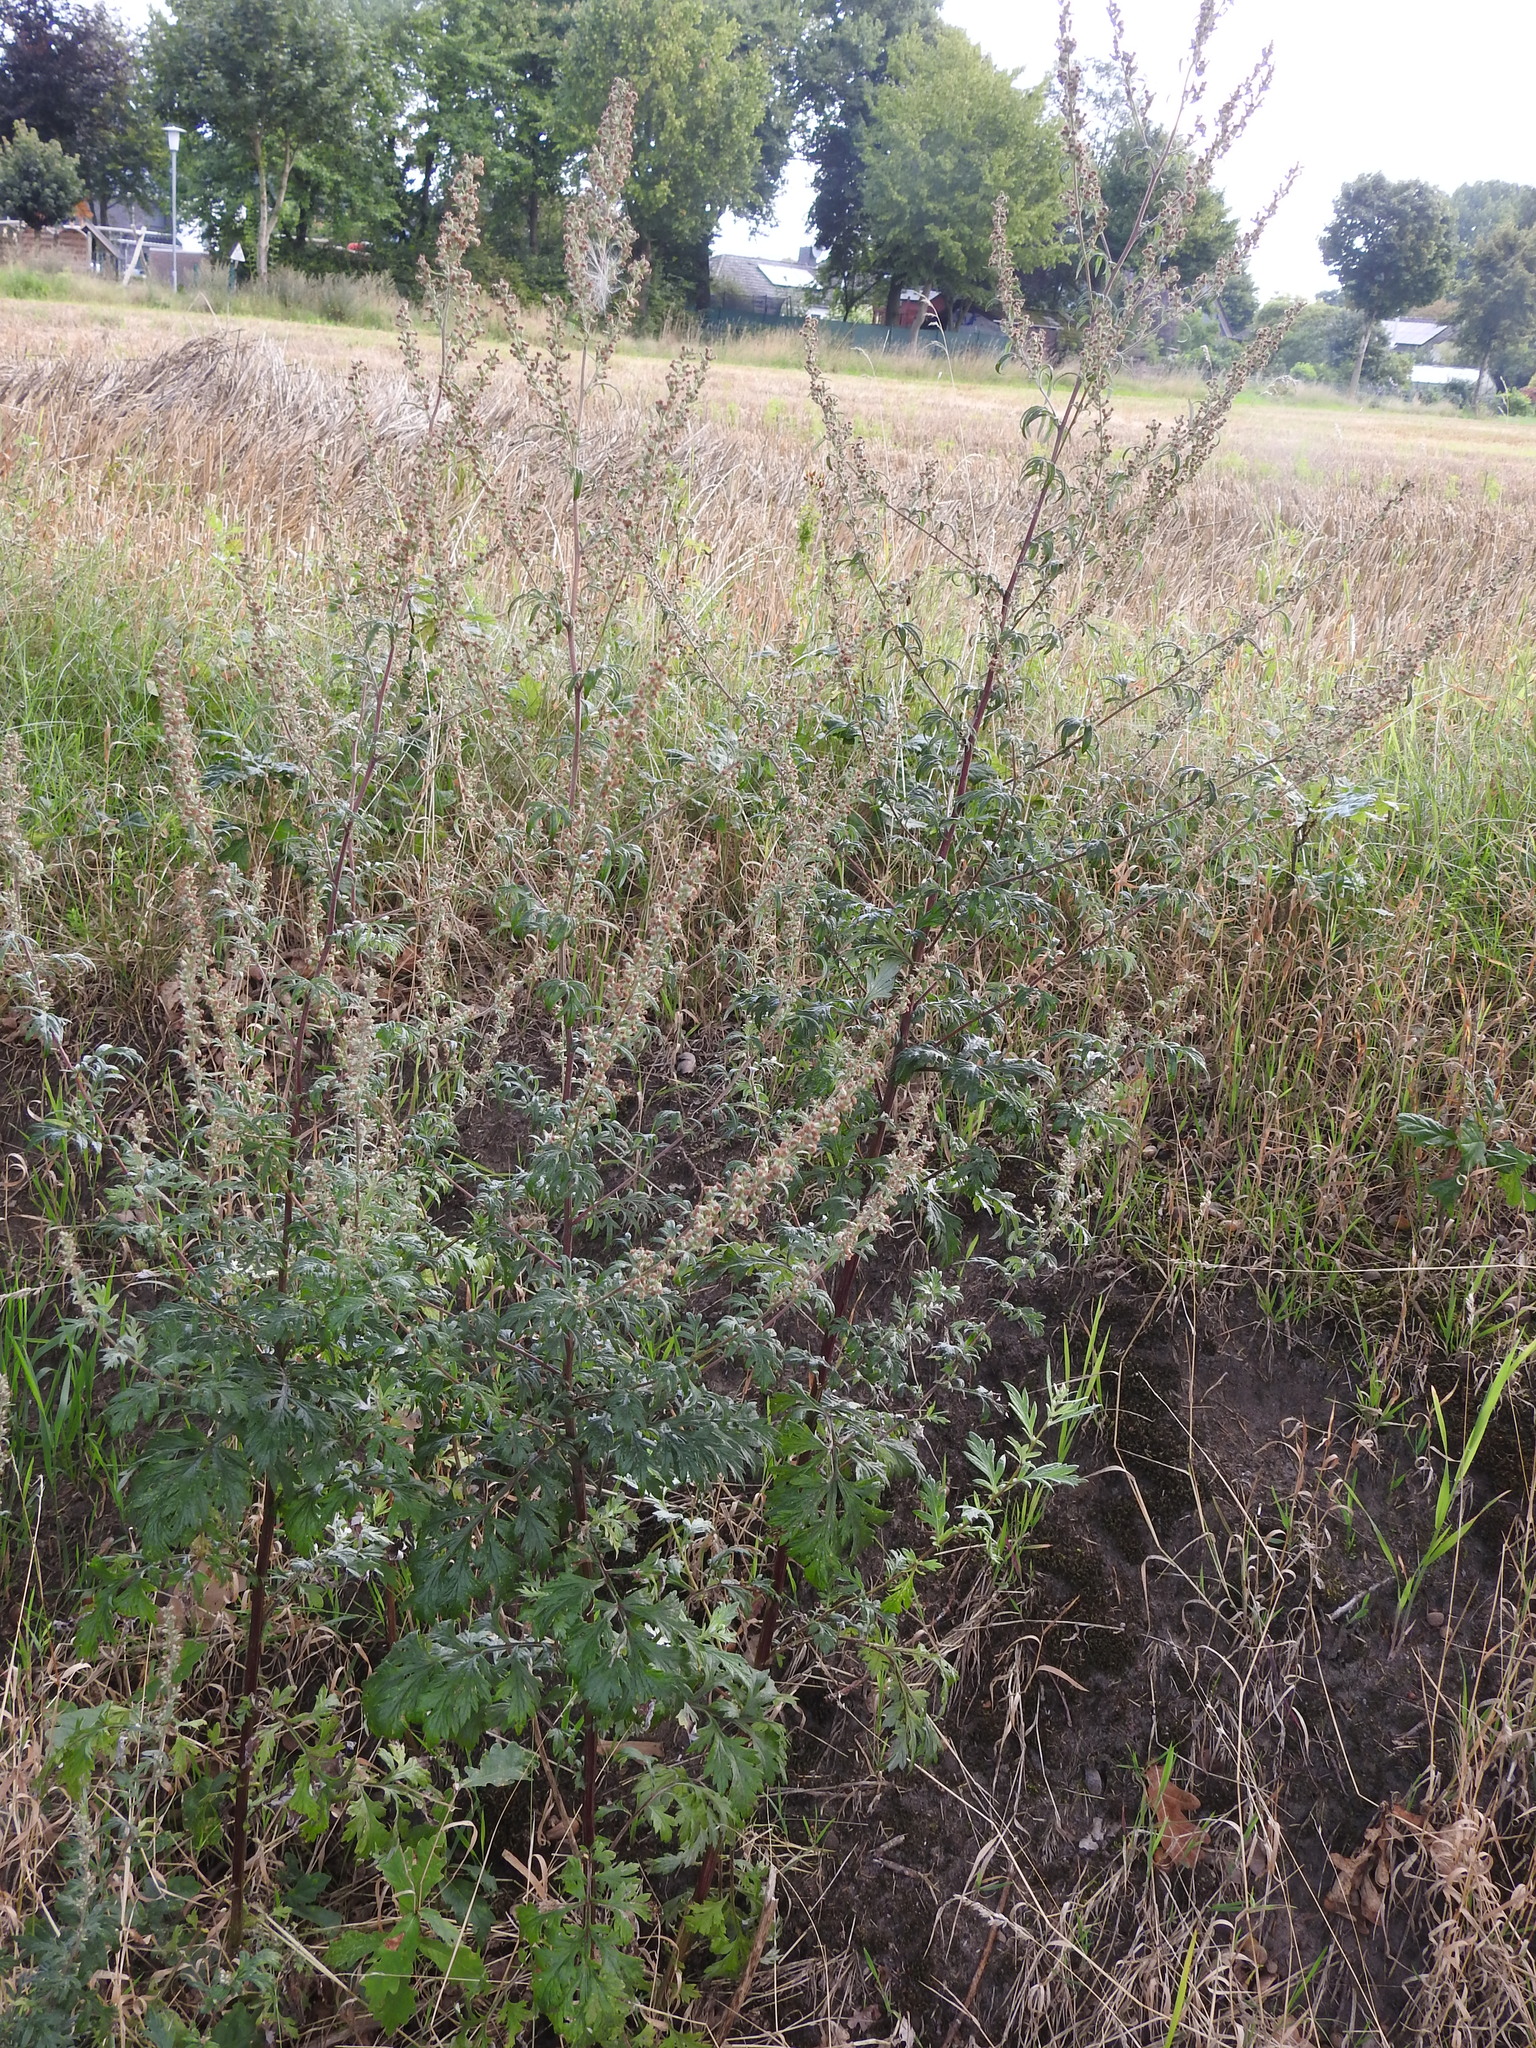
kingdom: Plantae
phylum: Tracheophyta
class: Magnoliopsida
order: Asterales
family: Asteraceae
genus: Artemisia
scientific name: Artemisia vulgaris
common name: Mugwort
